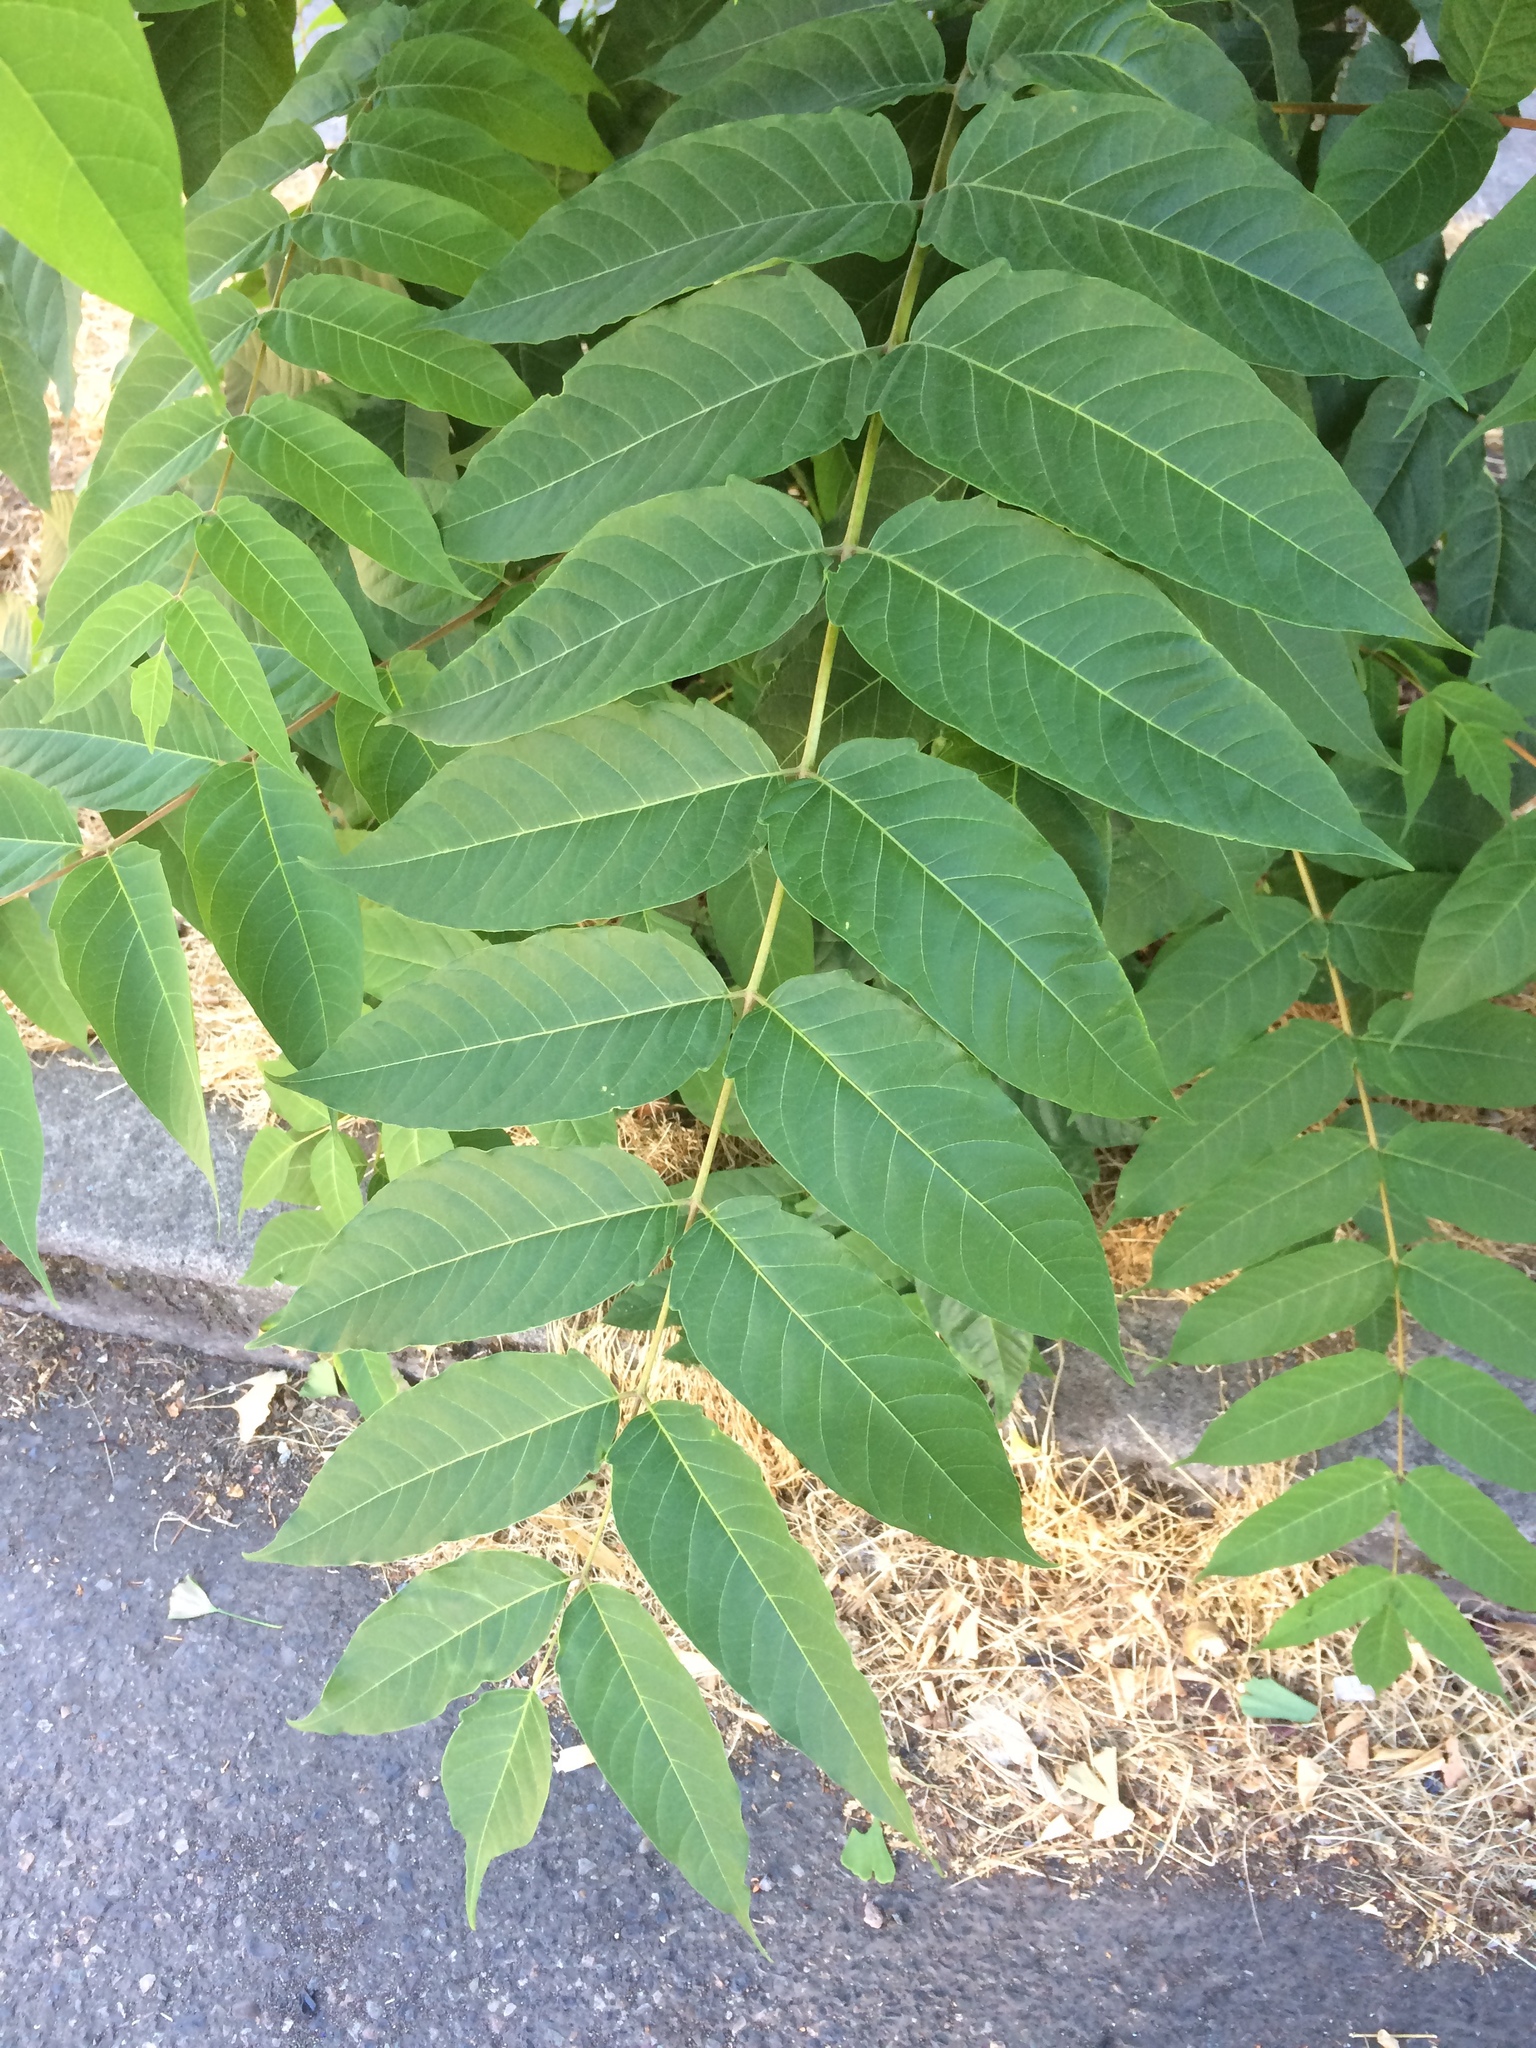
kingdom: Plantae
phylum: Tracheophyta
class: Magnoliopsida
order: Sapindales
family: Simaroubaceae
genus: Ailanthus
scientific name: Ailanthus altissima
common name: Tree-of-heaven
